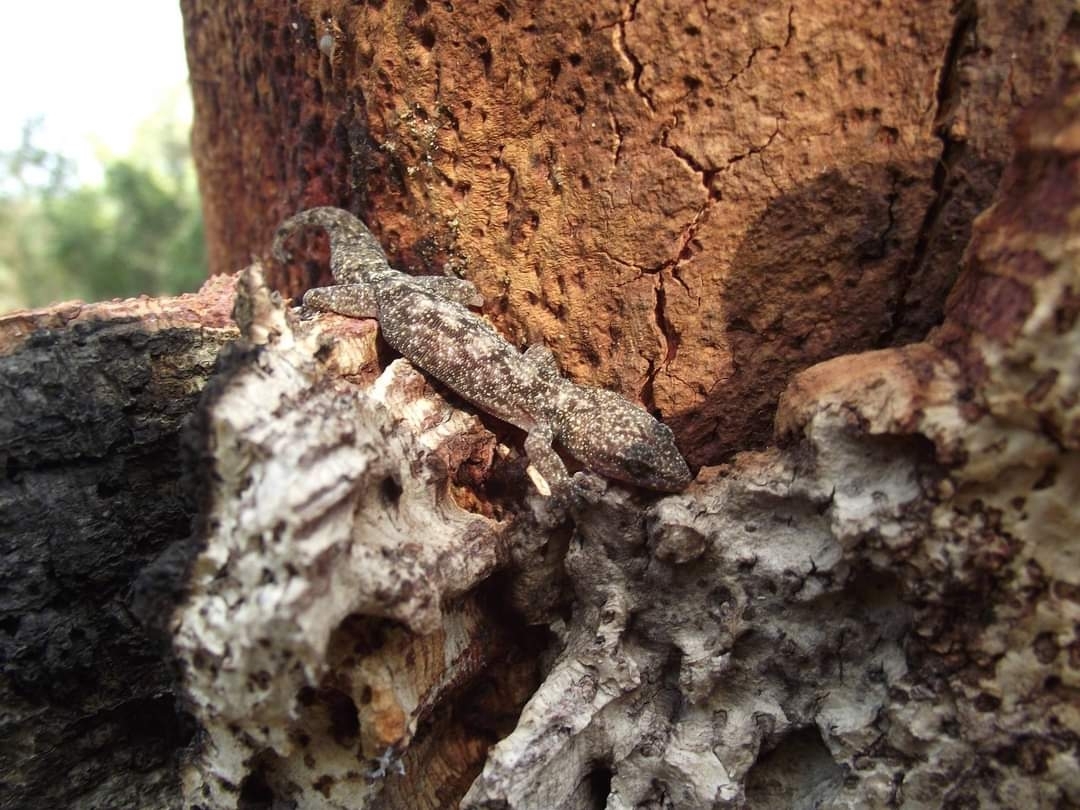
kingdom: Animalia
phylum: Chordata
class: Squamata
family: Sphaerodactylidae
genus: Euleptes
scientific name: Euleptes europaea
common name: English common name not available
